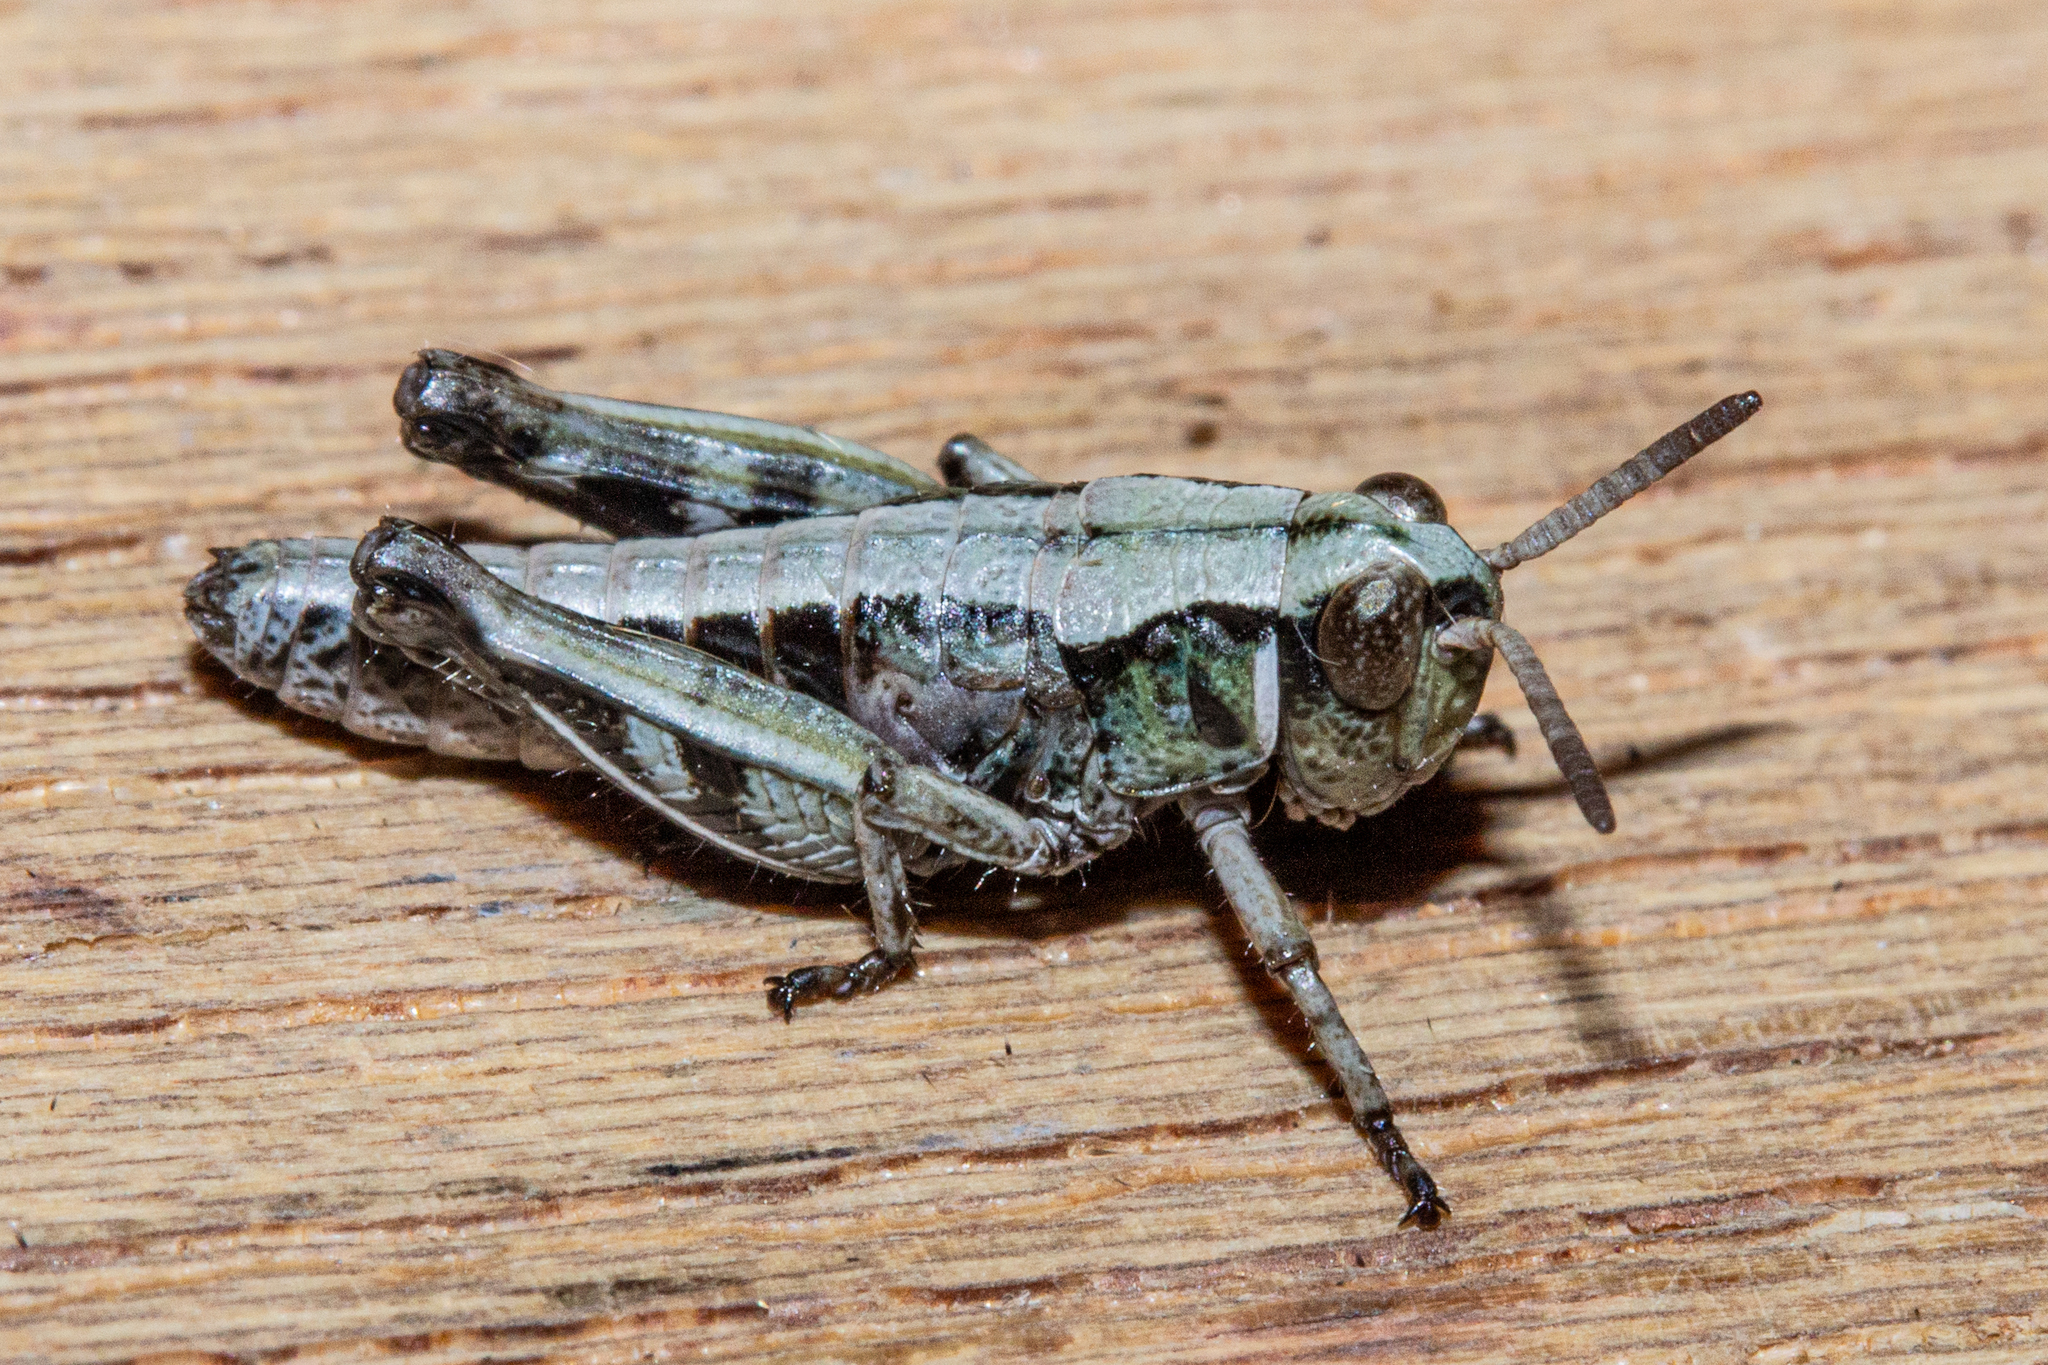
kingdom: Animalia
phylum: Arthropoda
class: Insecta
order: Orthoptera
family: Acrididae
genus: Sigaus
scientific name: Sigaus australis
